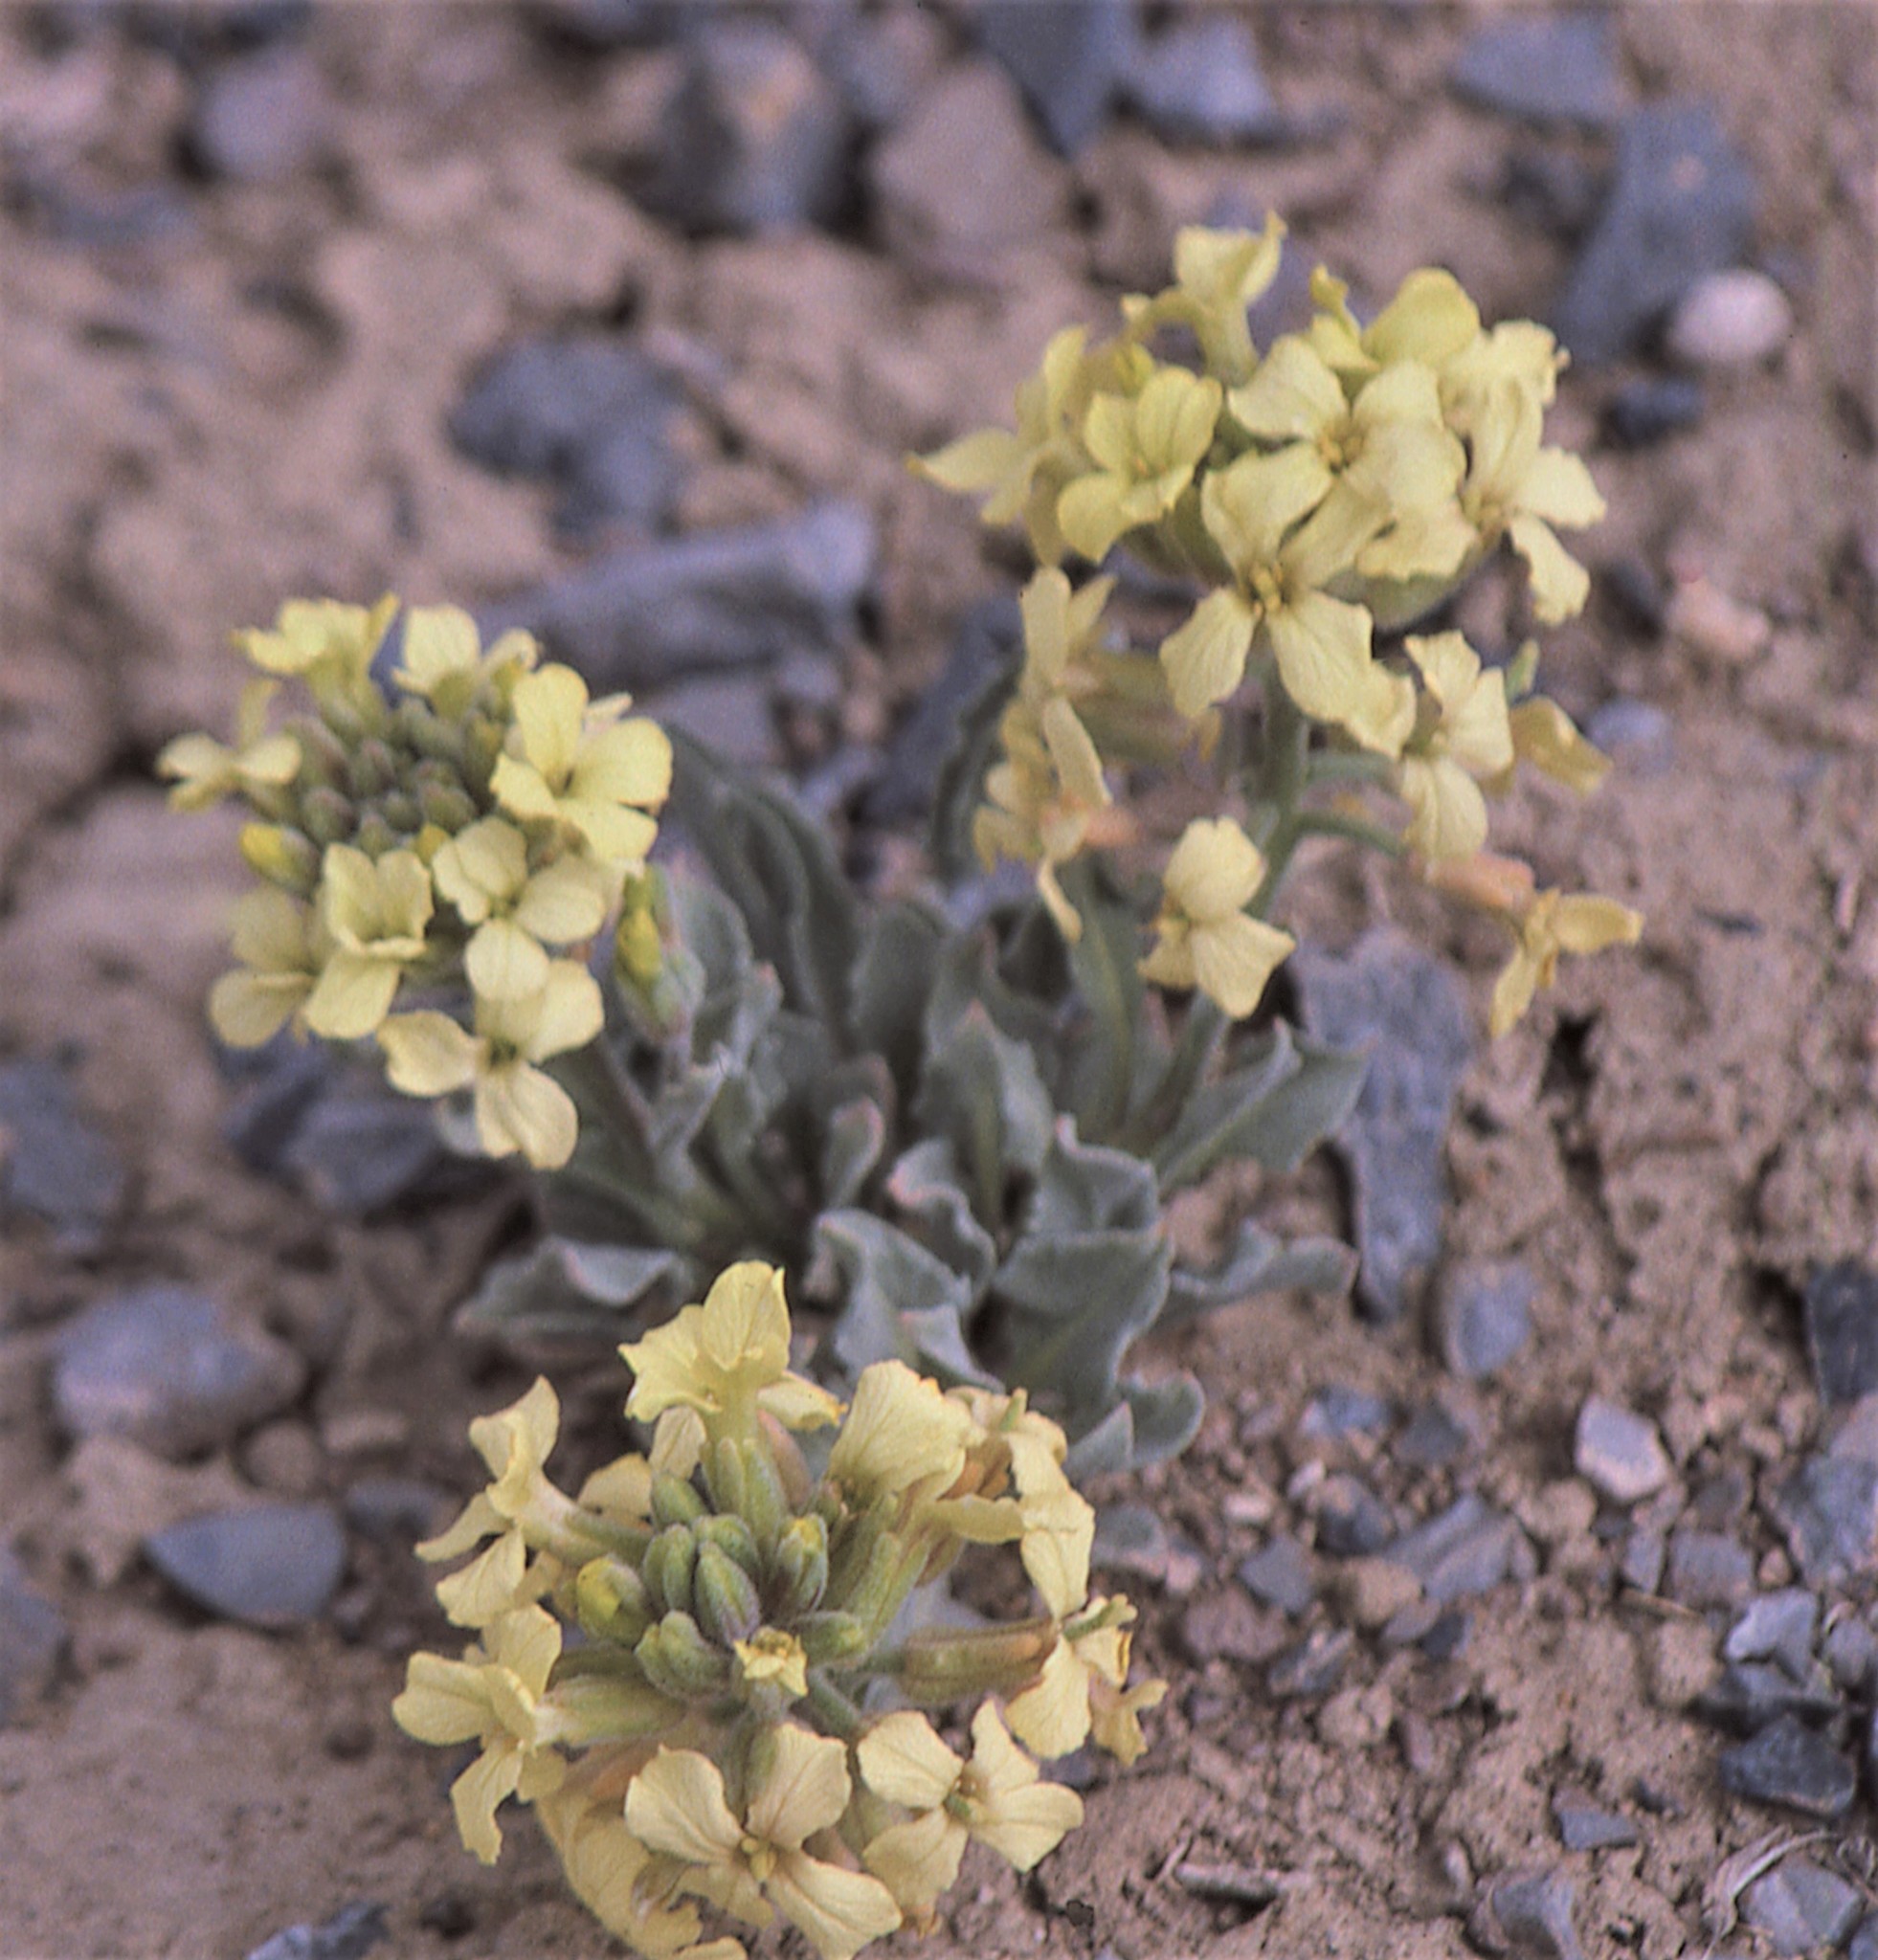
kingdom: Plantae
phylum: Tracheophyta
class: Magnoliopsida
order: Brassicales
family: Brassicaceae
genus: Sterigmostemum
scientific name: Sterigmostemum caspicum
